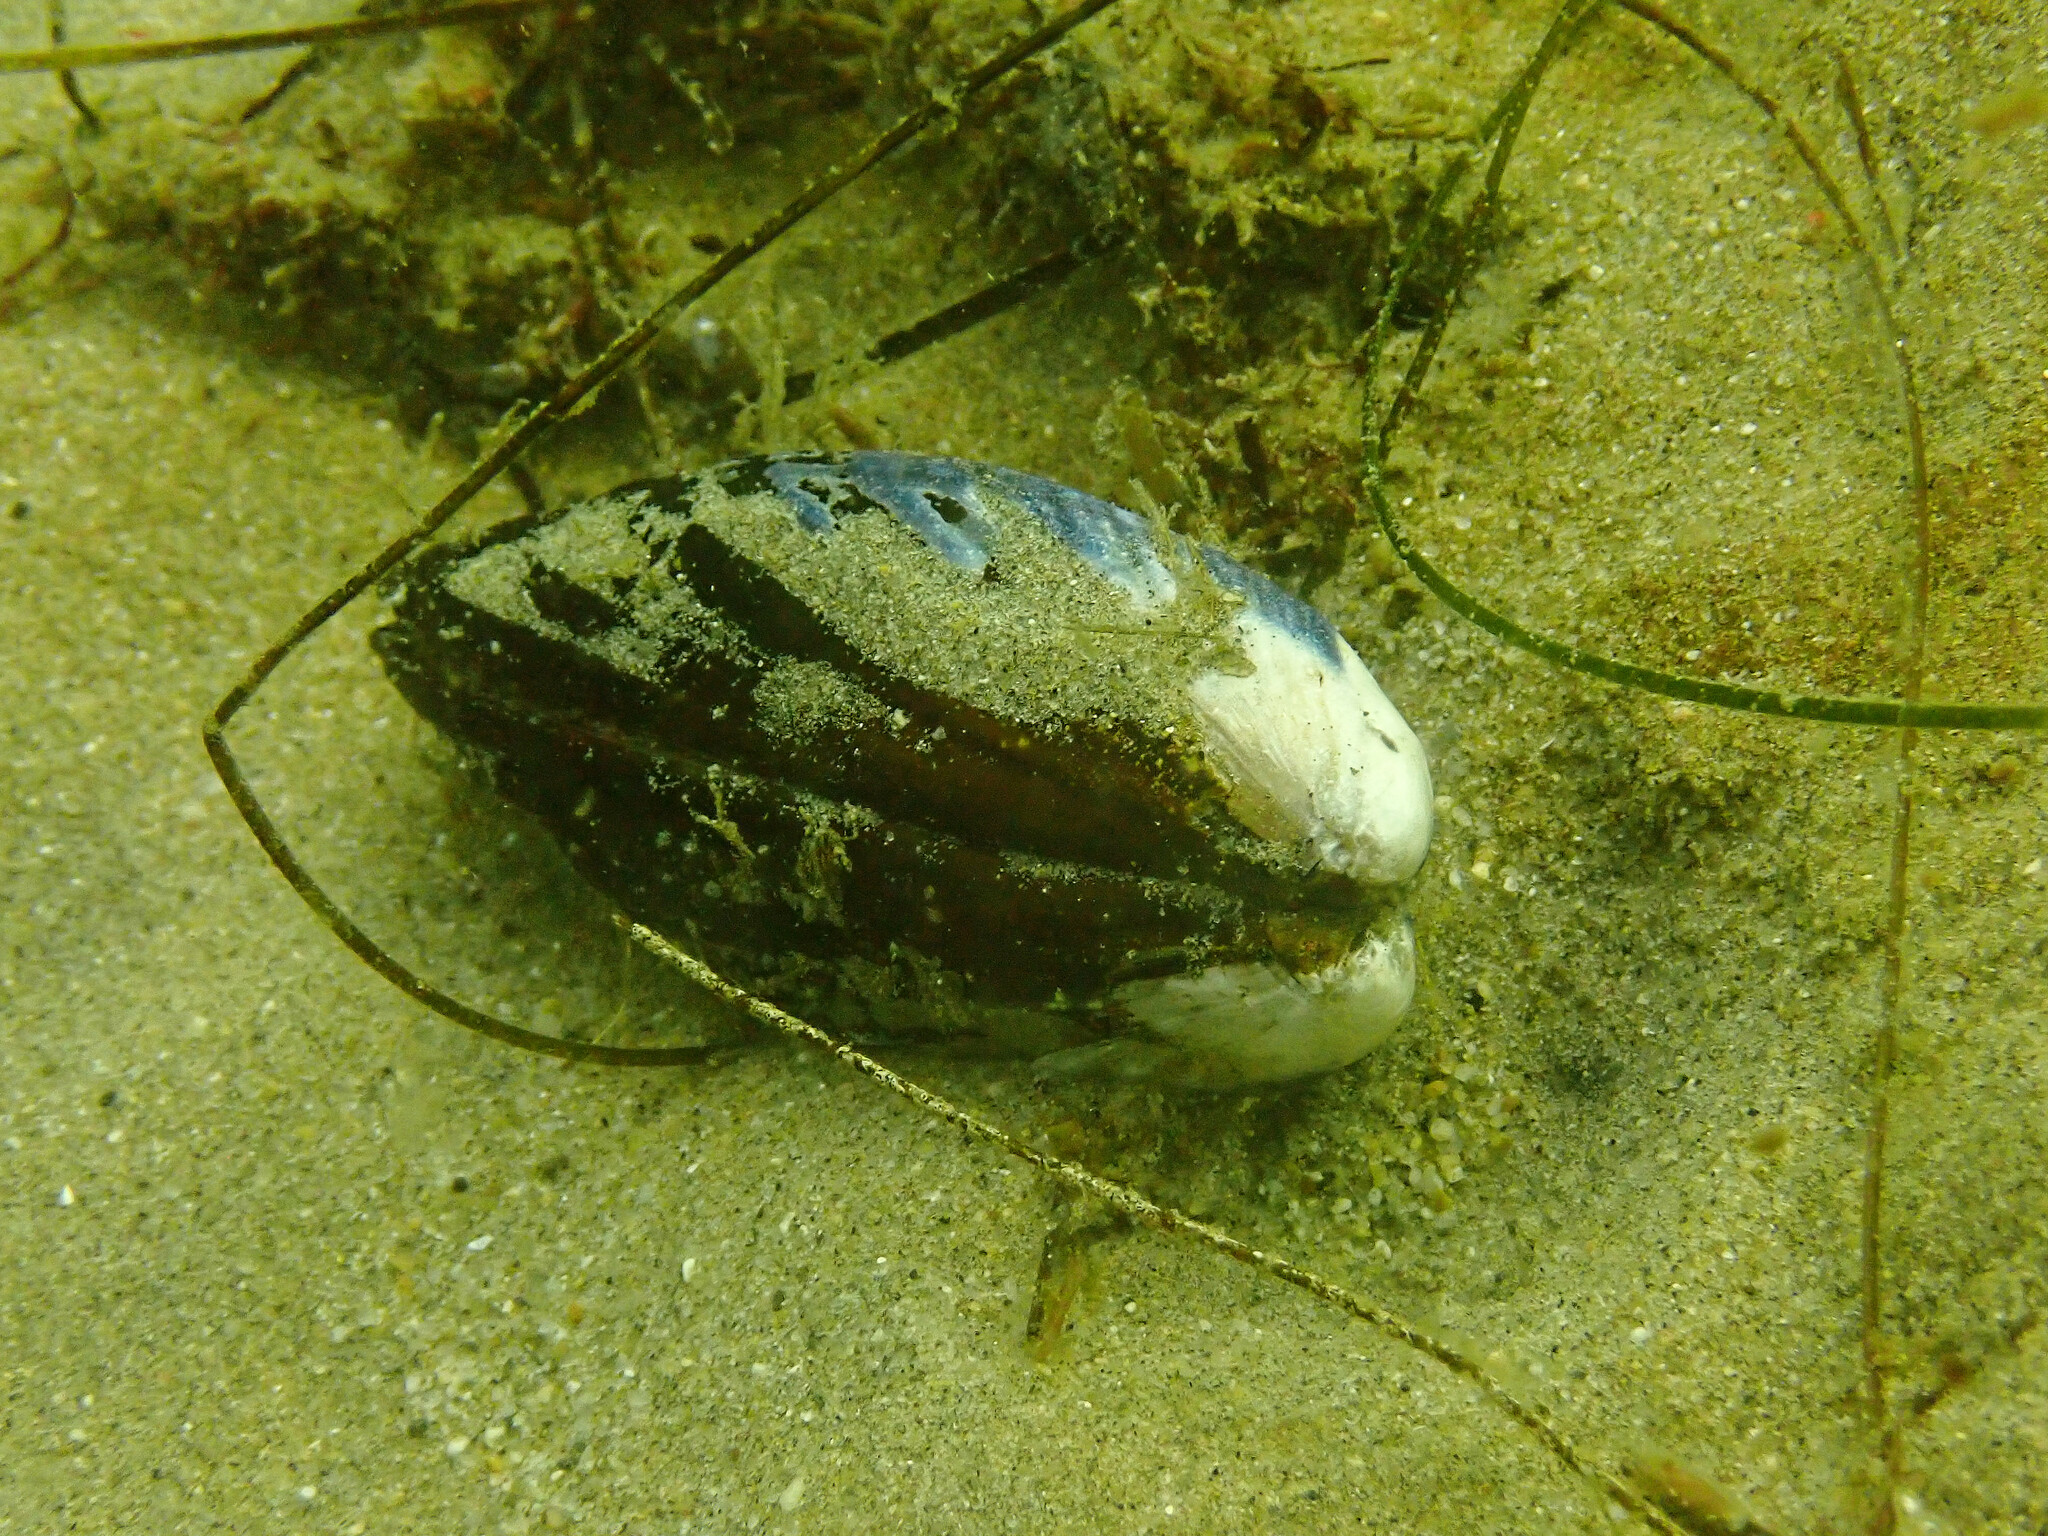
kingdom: Animalia
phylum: Mollusca
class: Bivalvia
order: Mytilida
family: Mytilidae
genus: Mytilus
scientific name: Mytilus californianus
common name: California mussel
